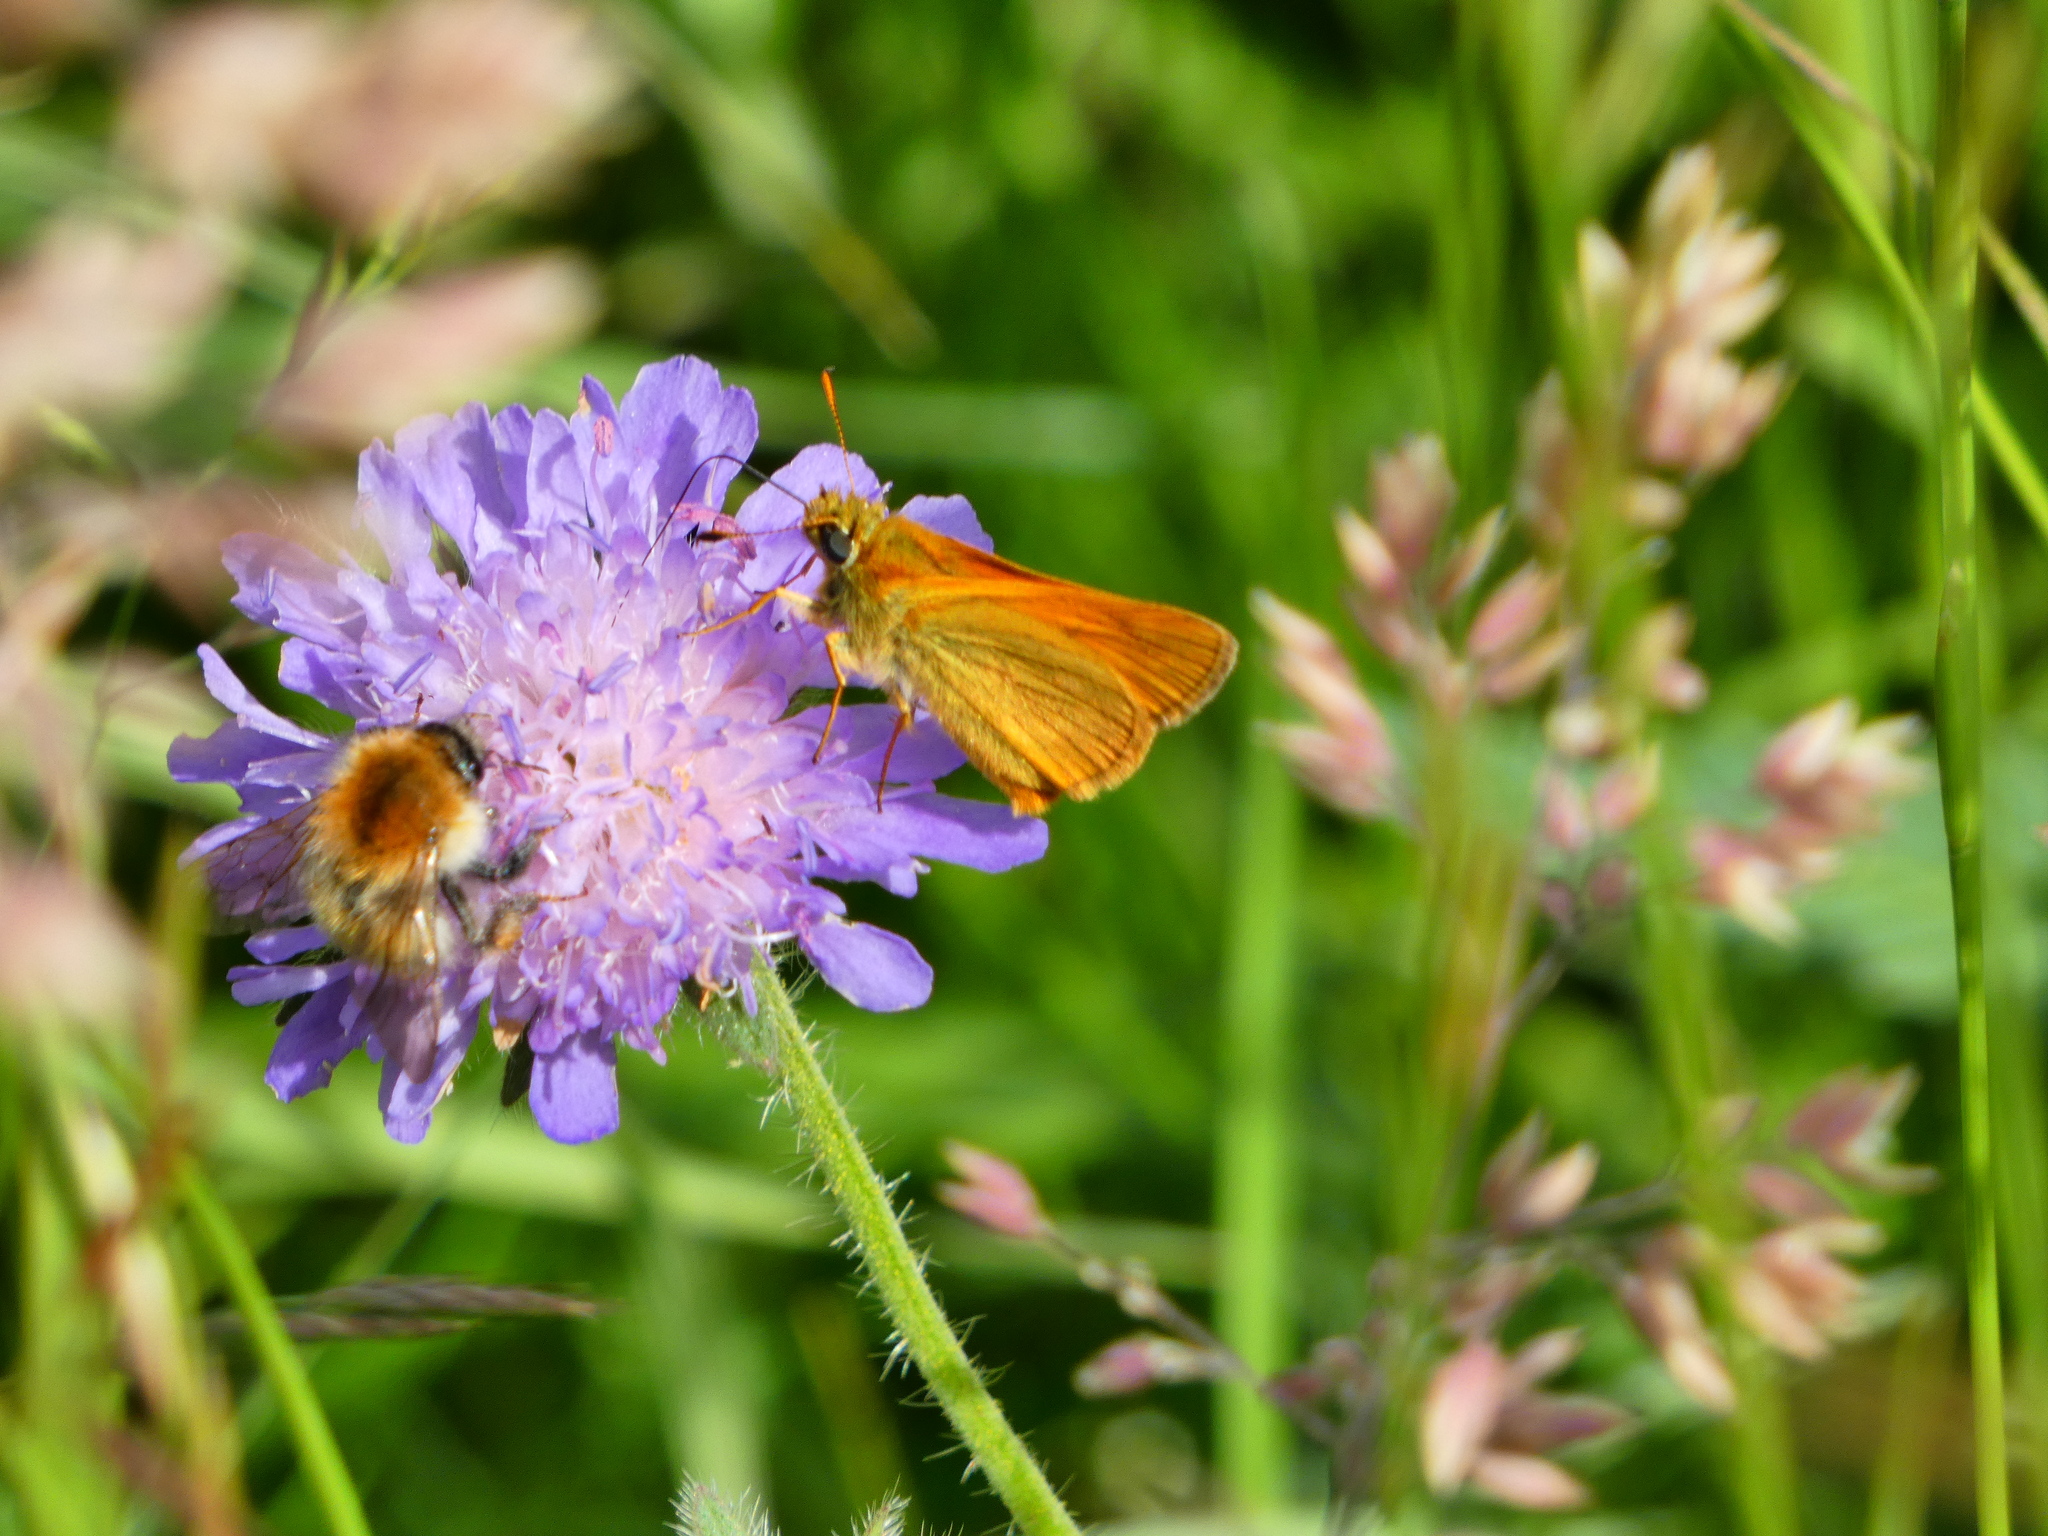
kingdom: Animalia
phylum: Arthropoda
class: Insecta
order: Lepidoptera
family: Hesperiidae
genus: Ochlodes
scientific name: Ochlodes venata
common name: Large skipper
